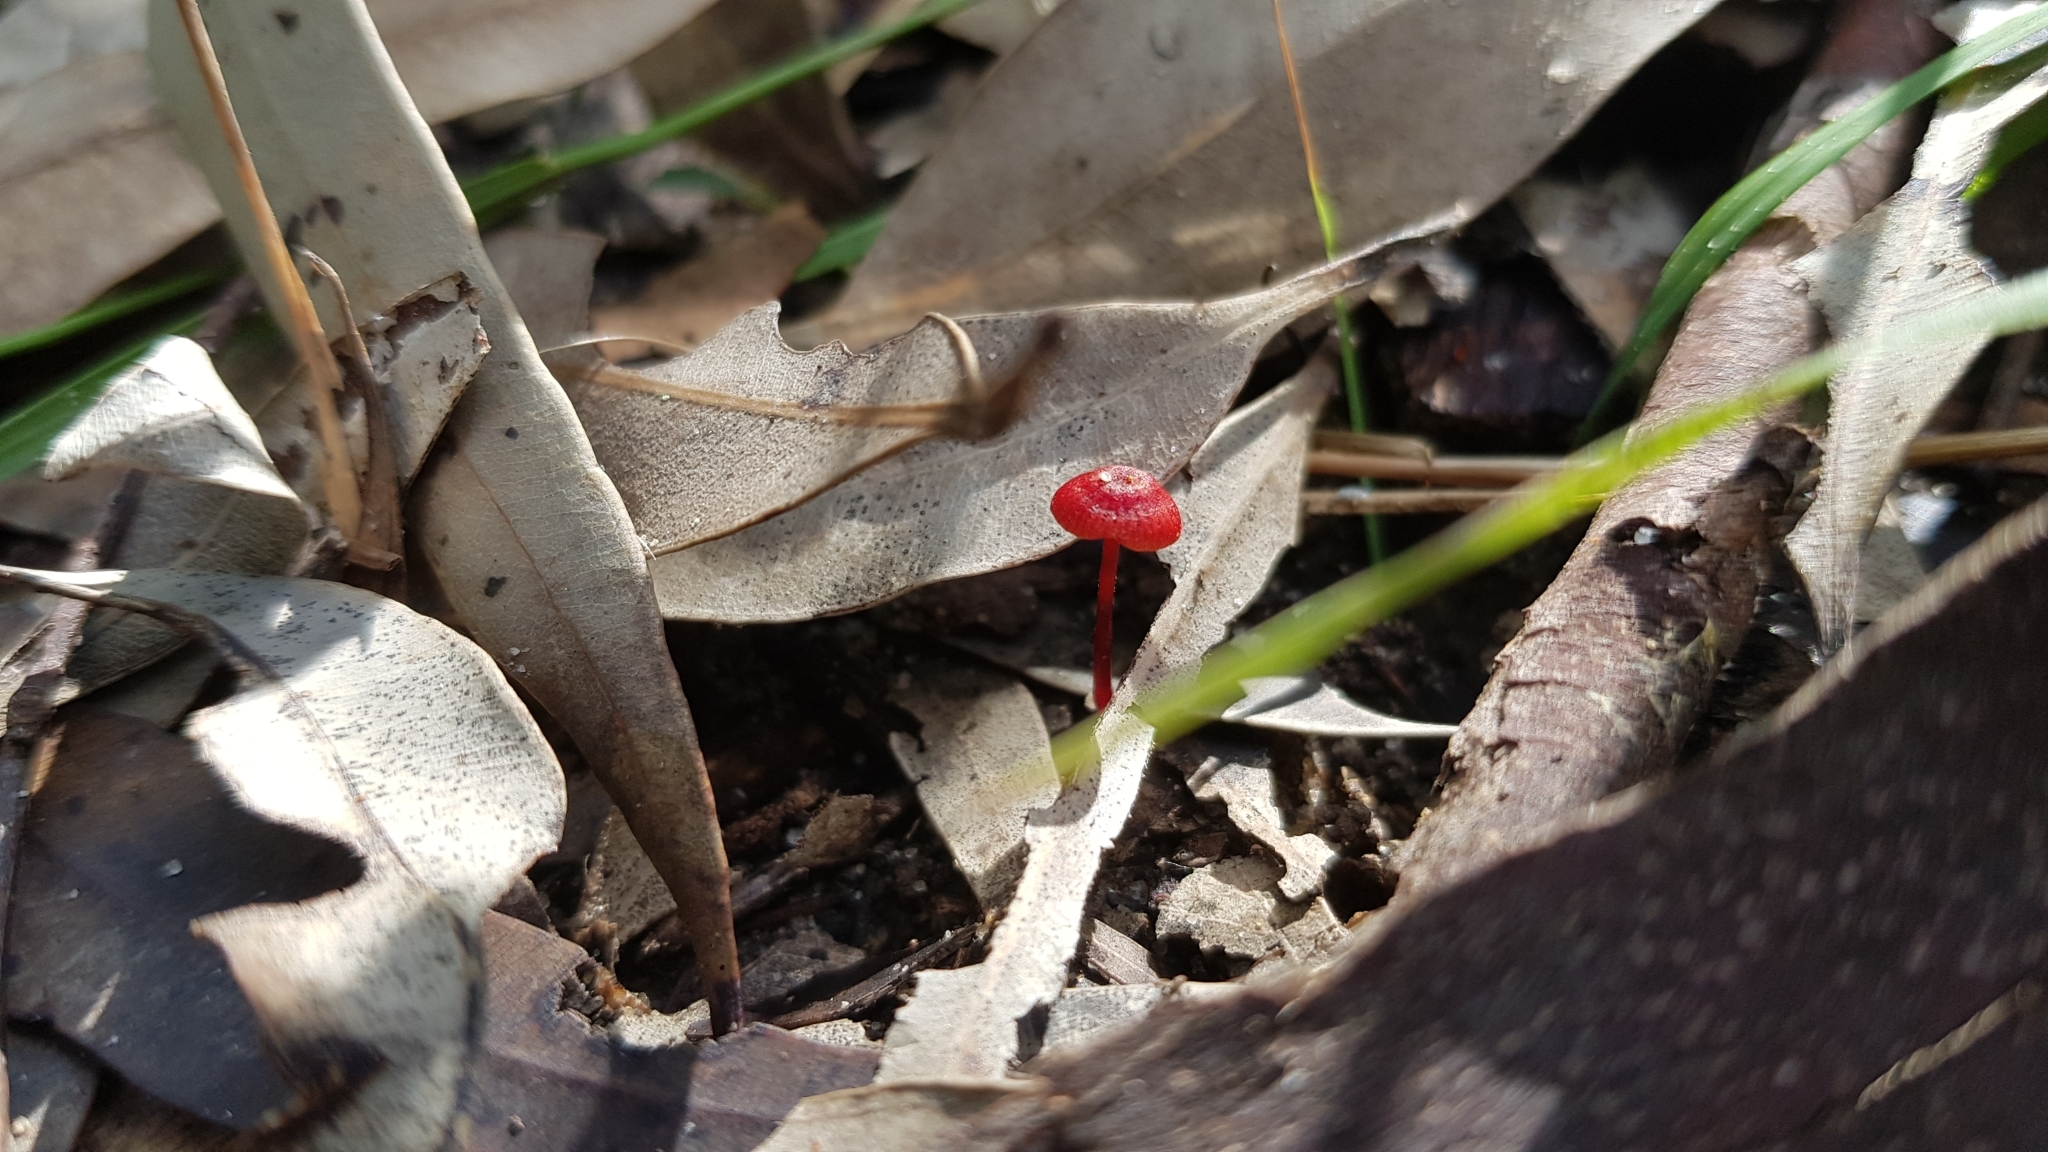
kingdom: Fungi
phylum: Basidiomycota
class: Agaricomycetes
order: Agaricales
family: Mycenaceae
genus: Cruentomycena
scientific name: Cruentomycena viscidocruenta
